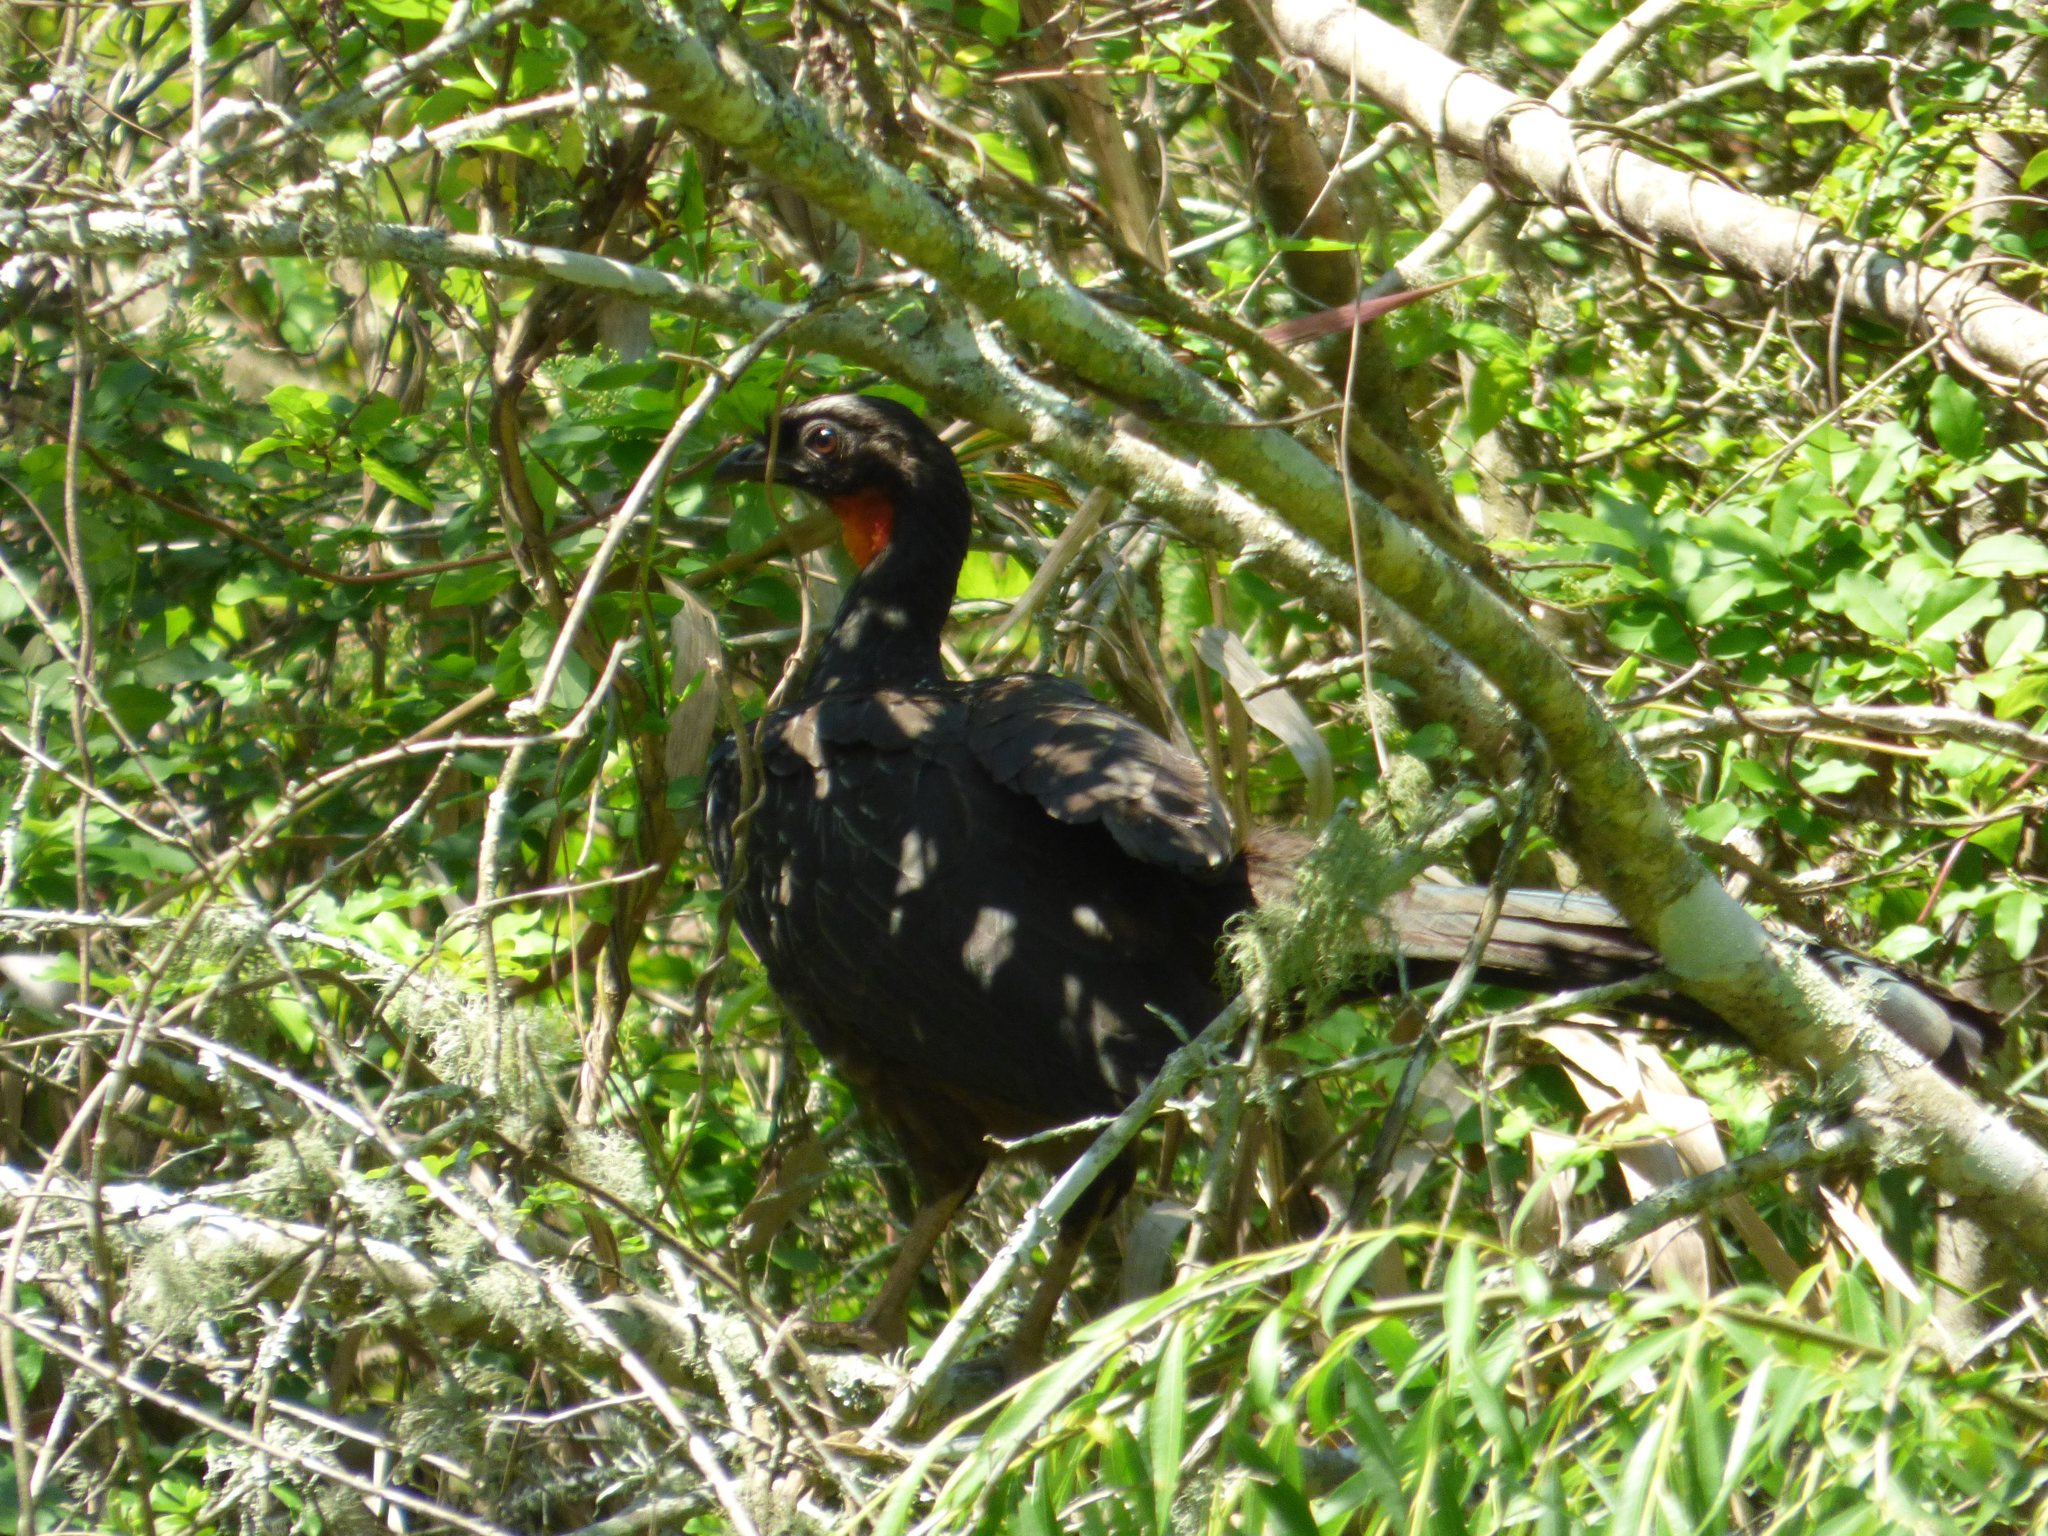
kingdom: Animalia
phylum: Chordata
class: Aves
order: Galliformes
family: Cracidae
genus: Penelope
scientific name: Penelope obscura
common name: Dusky-legged guan
